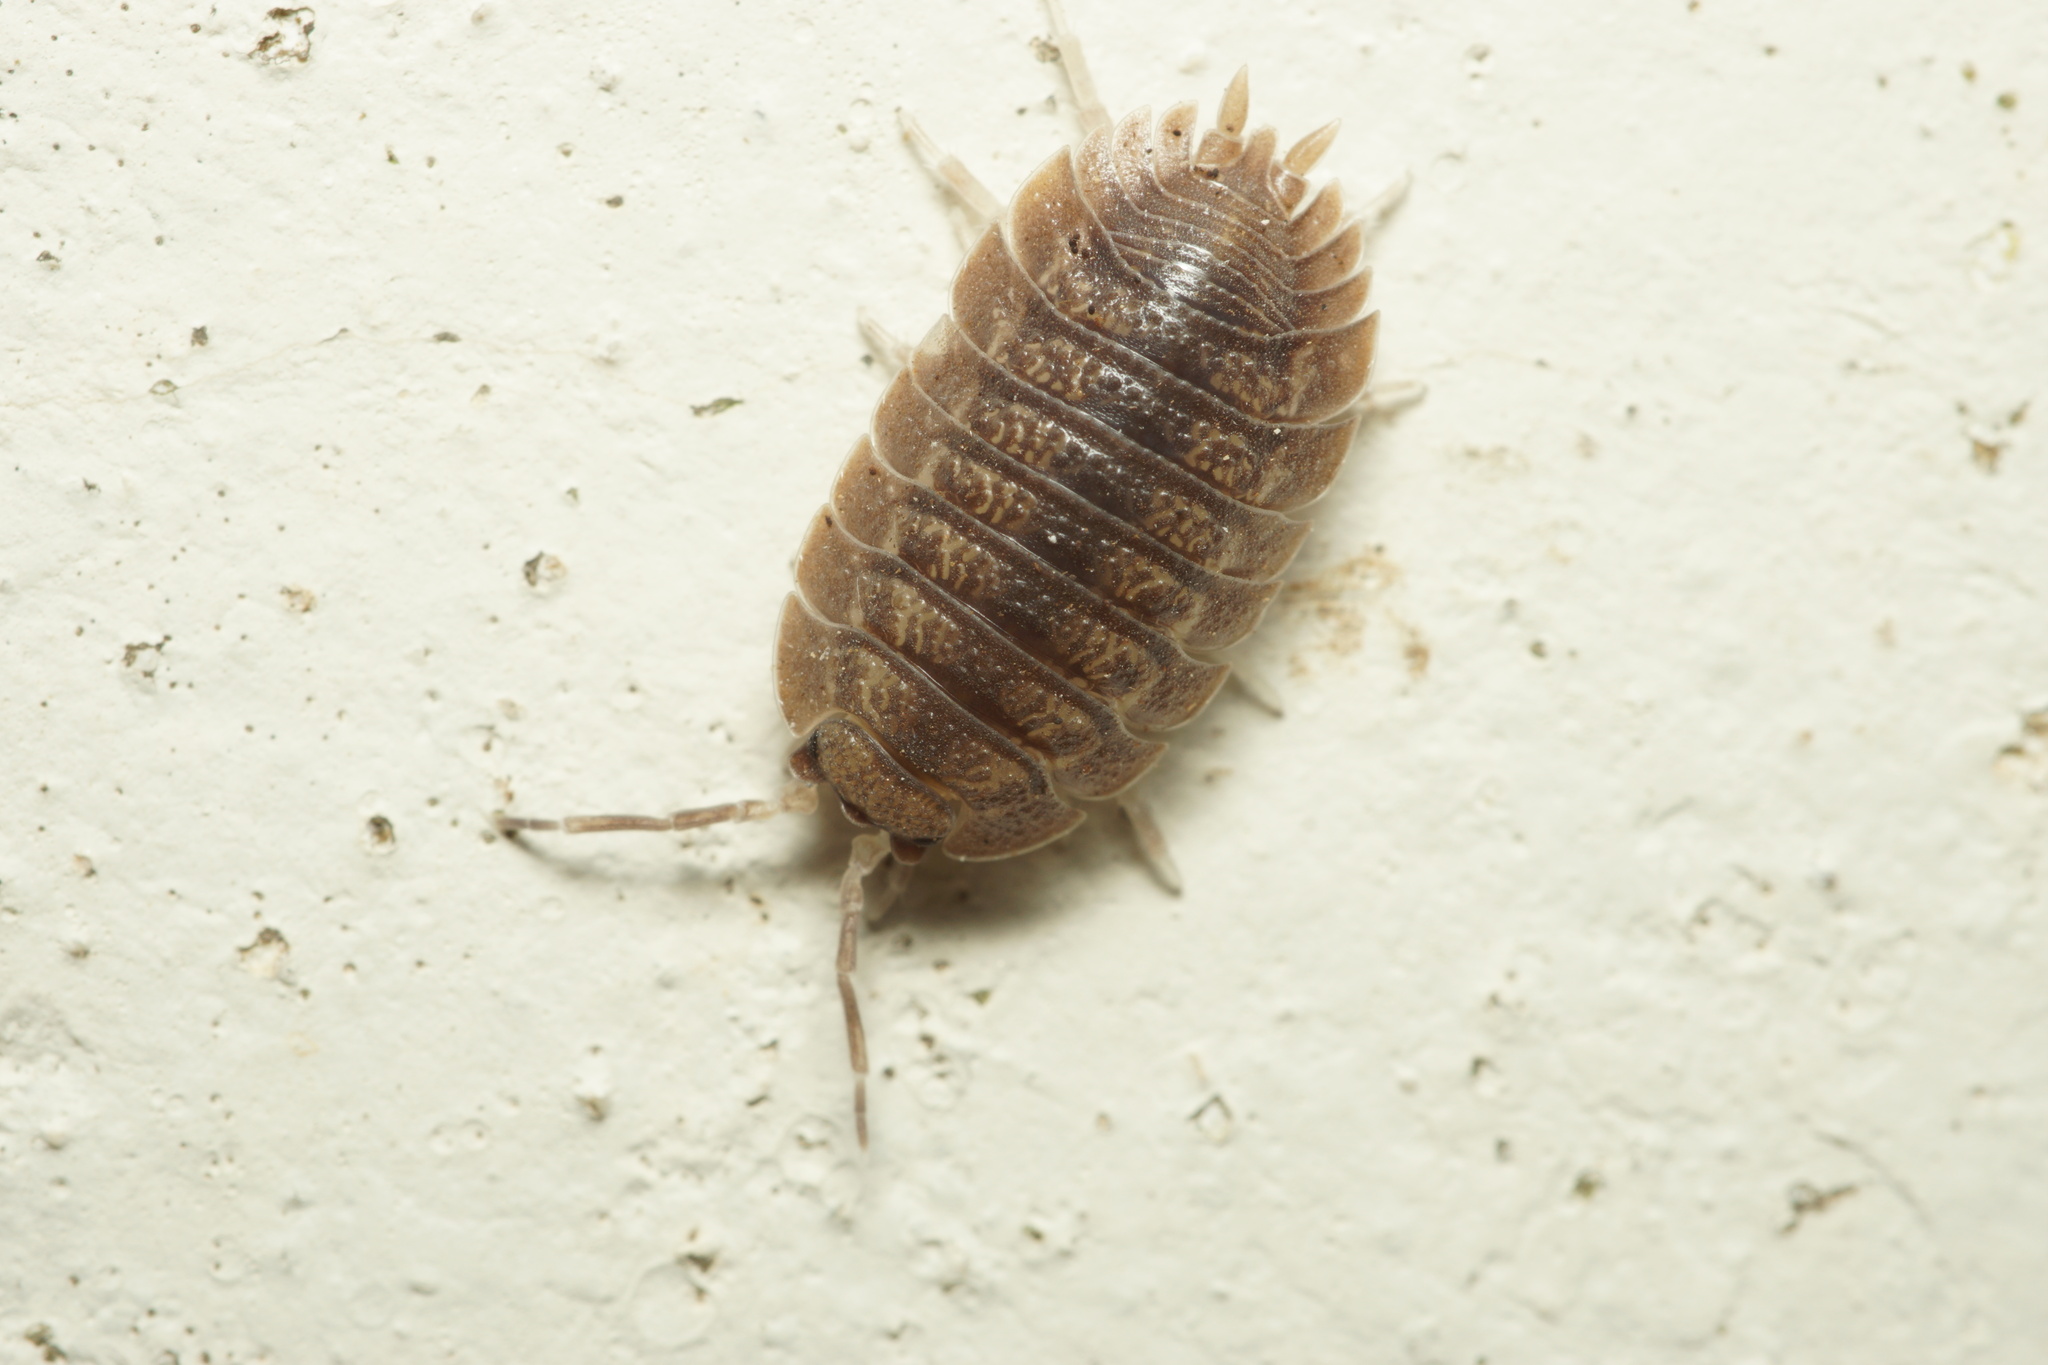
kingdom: Animalia
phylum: Arthropoda
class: Malacostraca
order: Isopoda
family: Porcellionidae
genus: Porcellio
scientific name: Porcellio dilatatus
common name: Isopod
